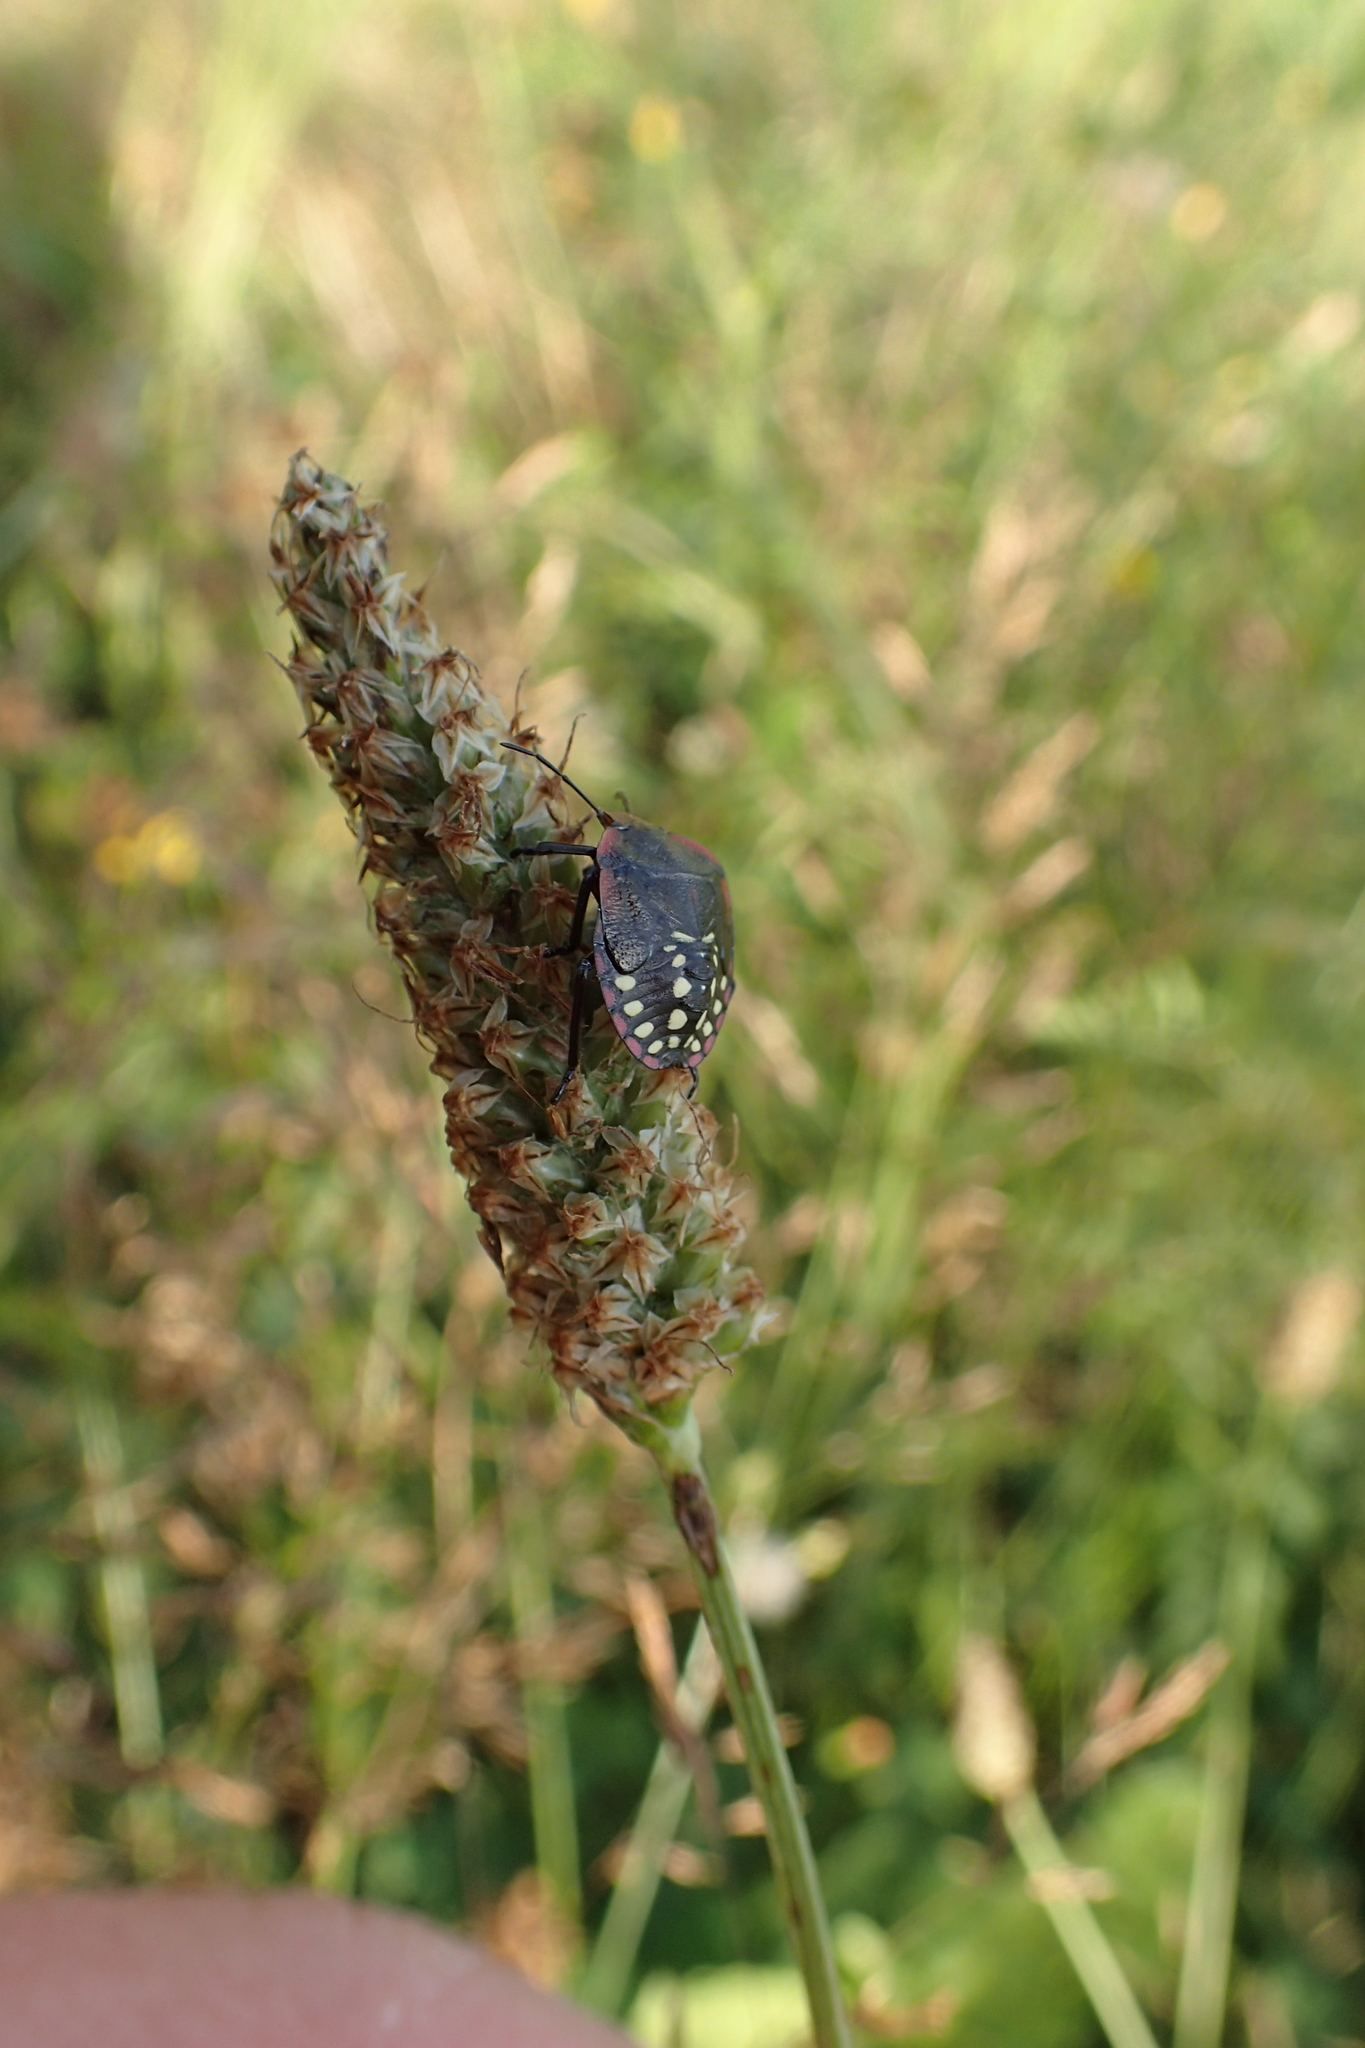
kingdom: Animalia
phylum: Arthropoda
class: Insecta
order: Hemiptera
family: Pentatomidae
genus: Nezara
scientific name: Nezara viridula
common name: Southern green stink bug
